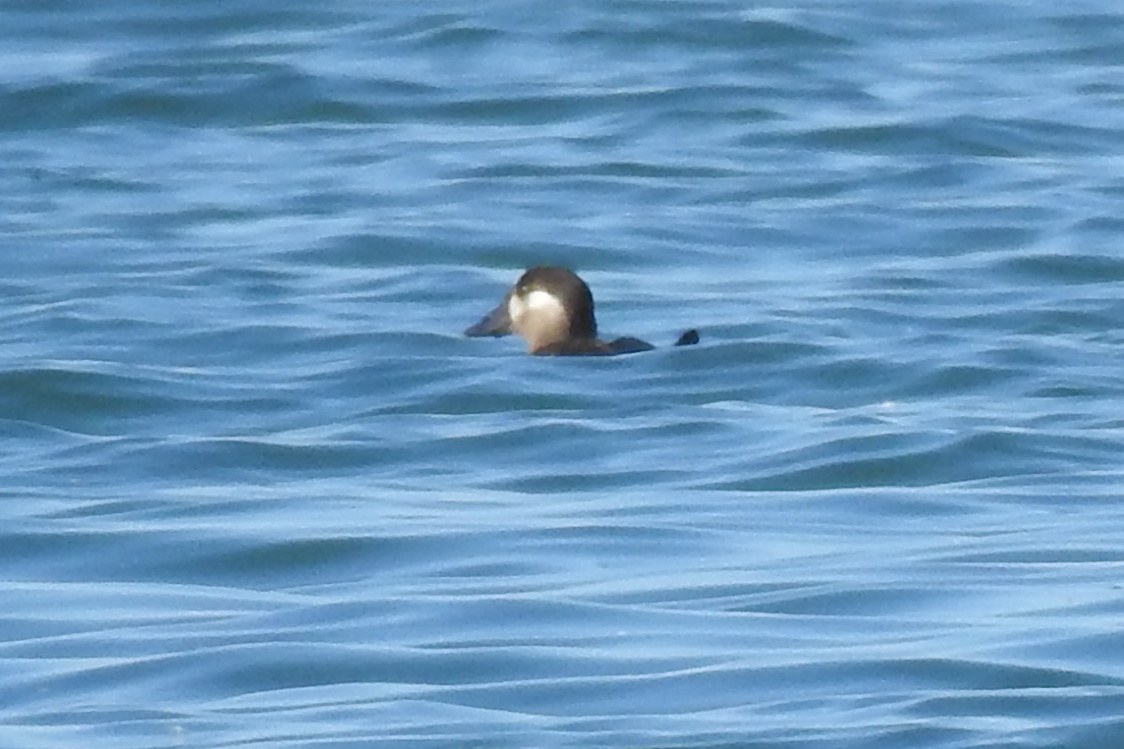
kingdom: Animalia
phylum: Chordata
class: Aves
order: Anseriformes
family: Anatidae
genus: Melanitta
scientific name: Melanitta americana
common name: Black scoter
